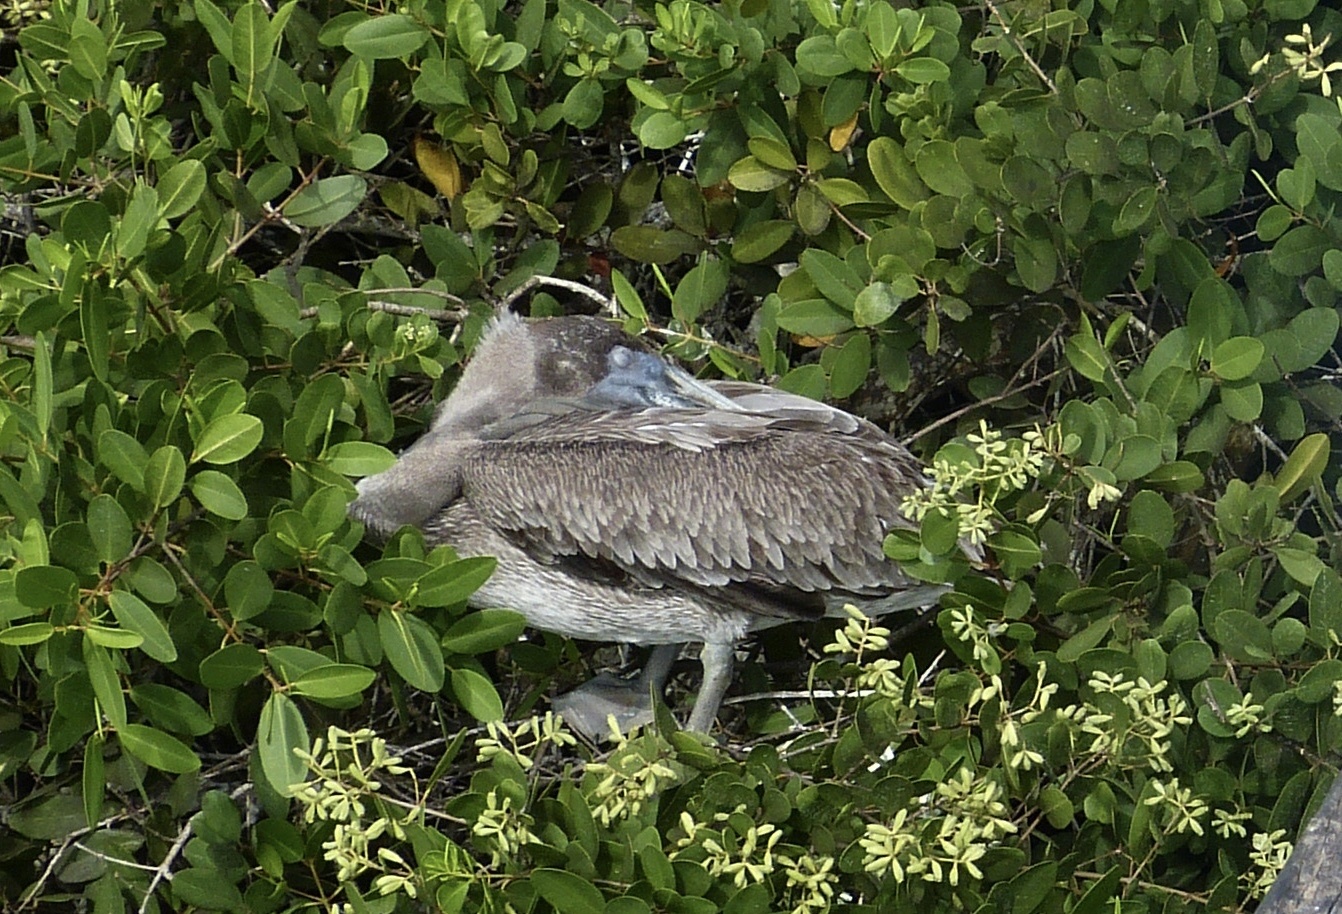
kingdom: Animalia
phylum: Chordata
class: Aves
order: Pelecaniformes
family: Pelecanidae
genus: Pelecanus
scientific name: Pelecanus occidentalis
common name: Brown pelican
